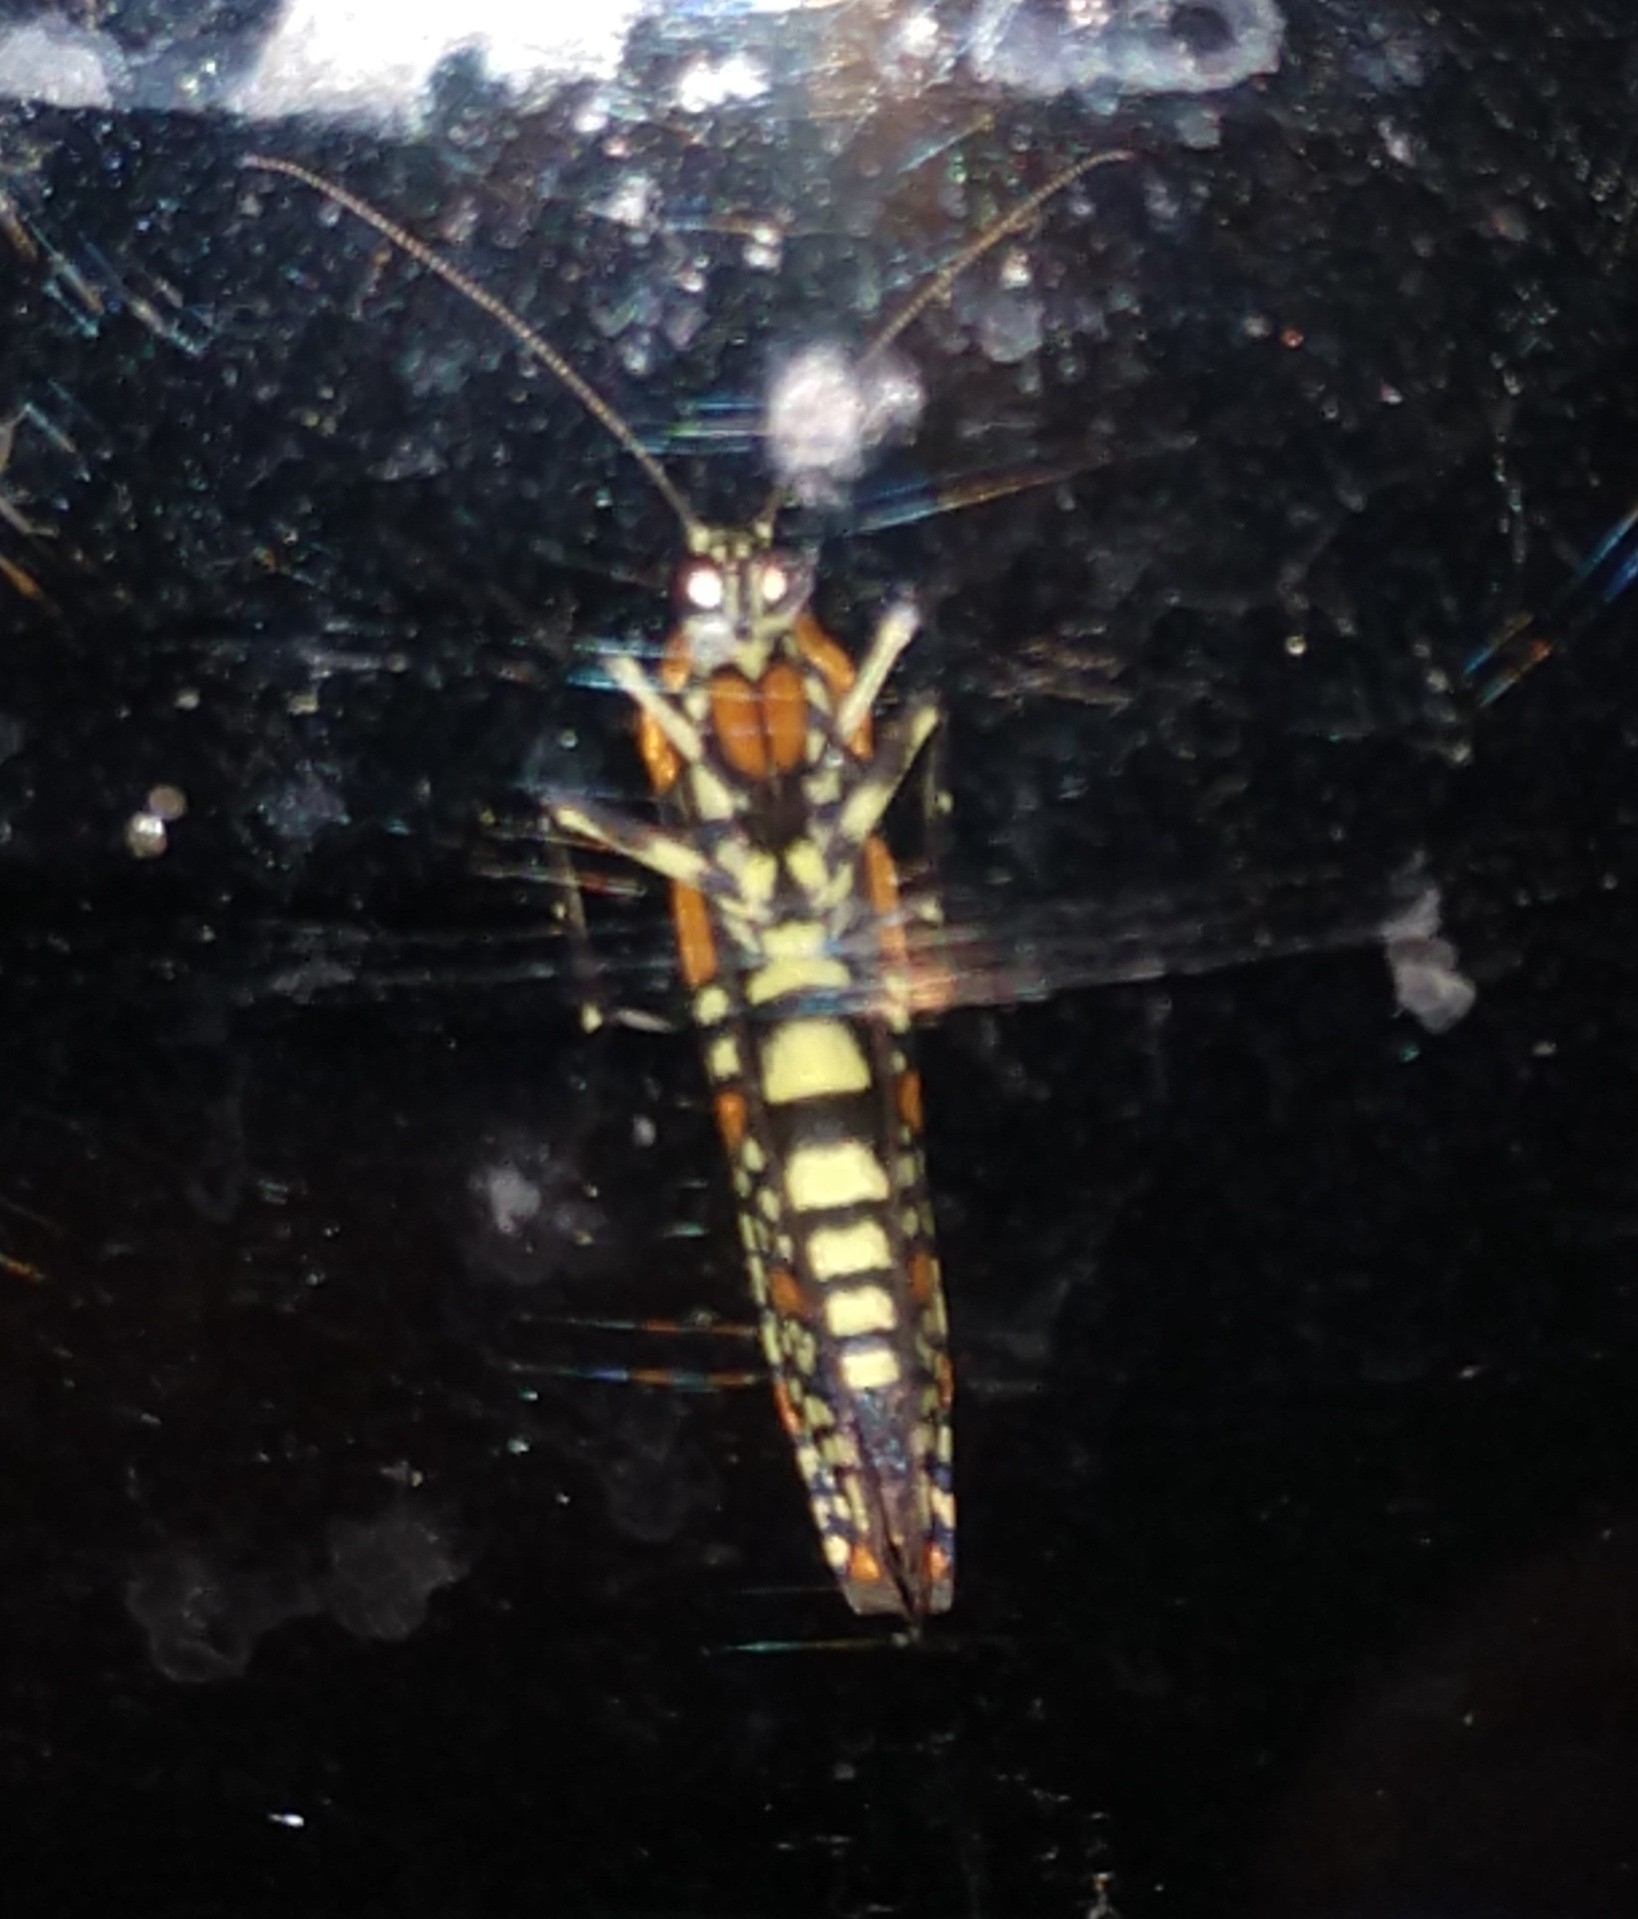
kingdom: Animalia
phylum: Arthropoda
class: Insecta
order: Lepidoptera
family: Attevidae
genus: Atteva
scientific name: Atteva punctella
